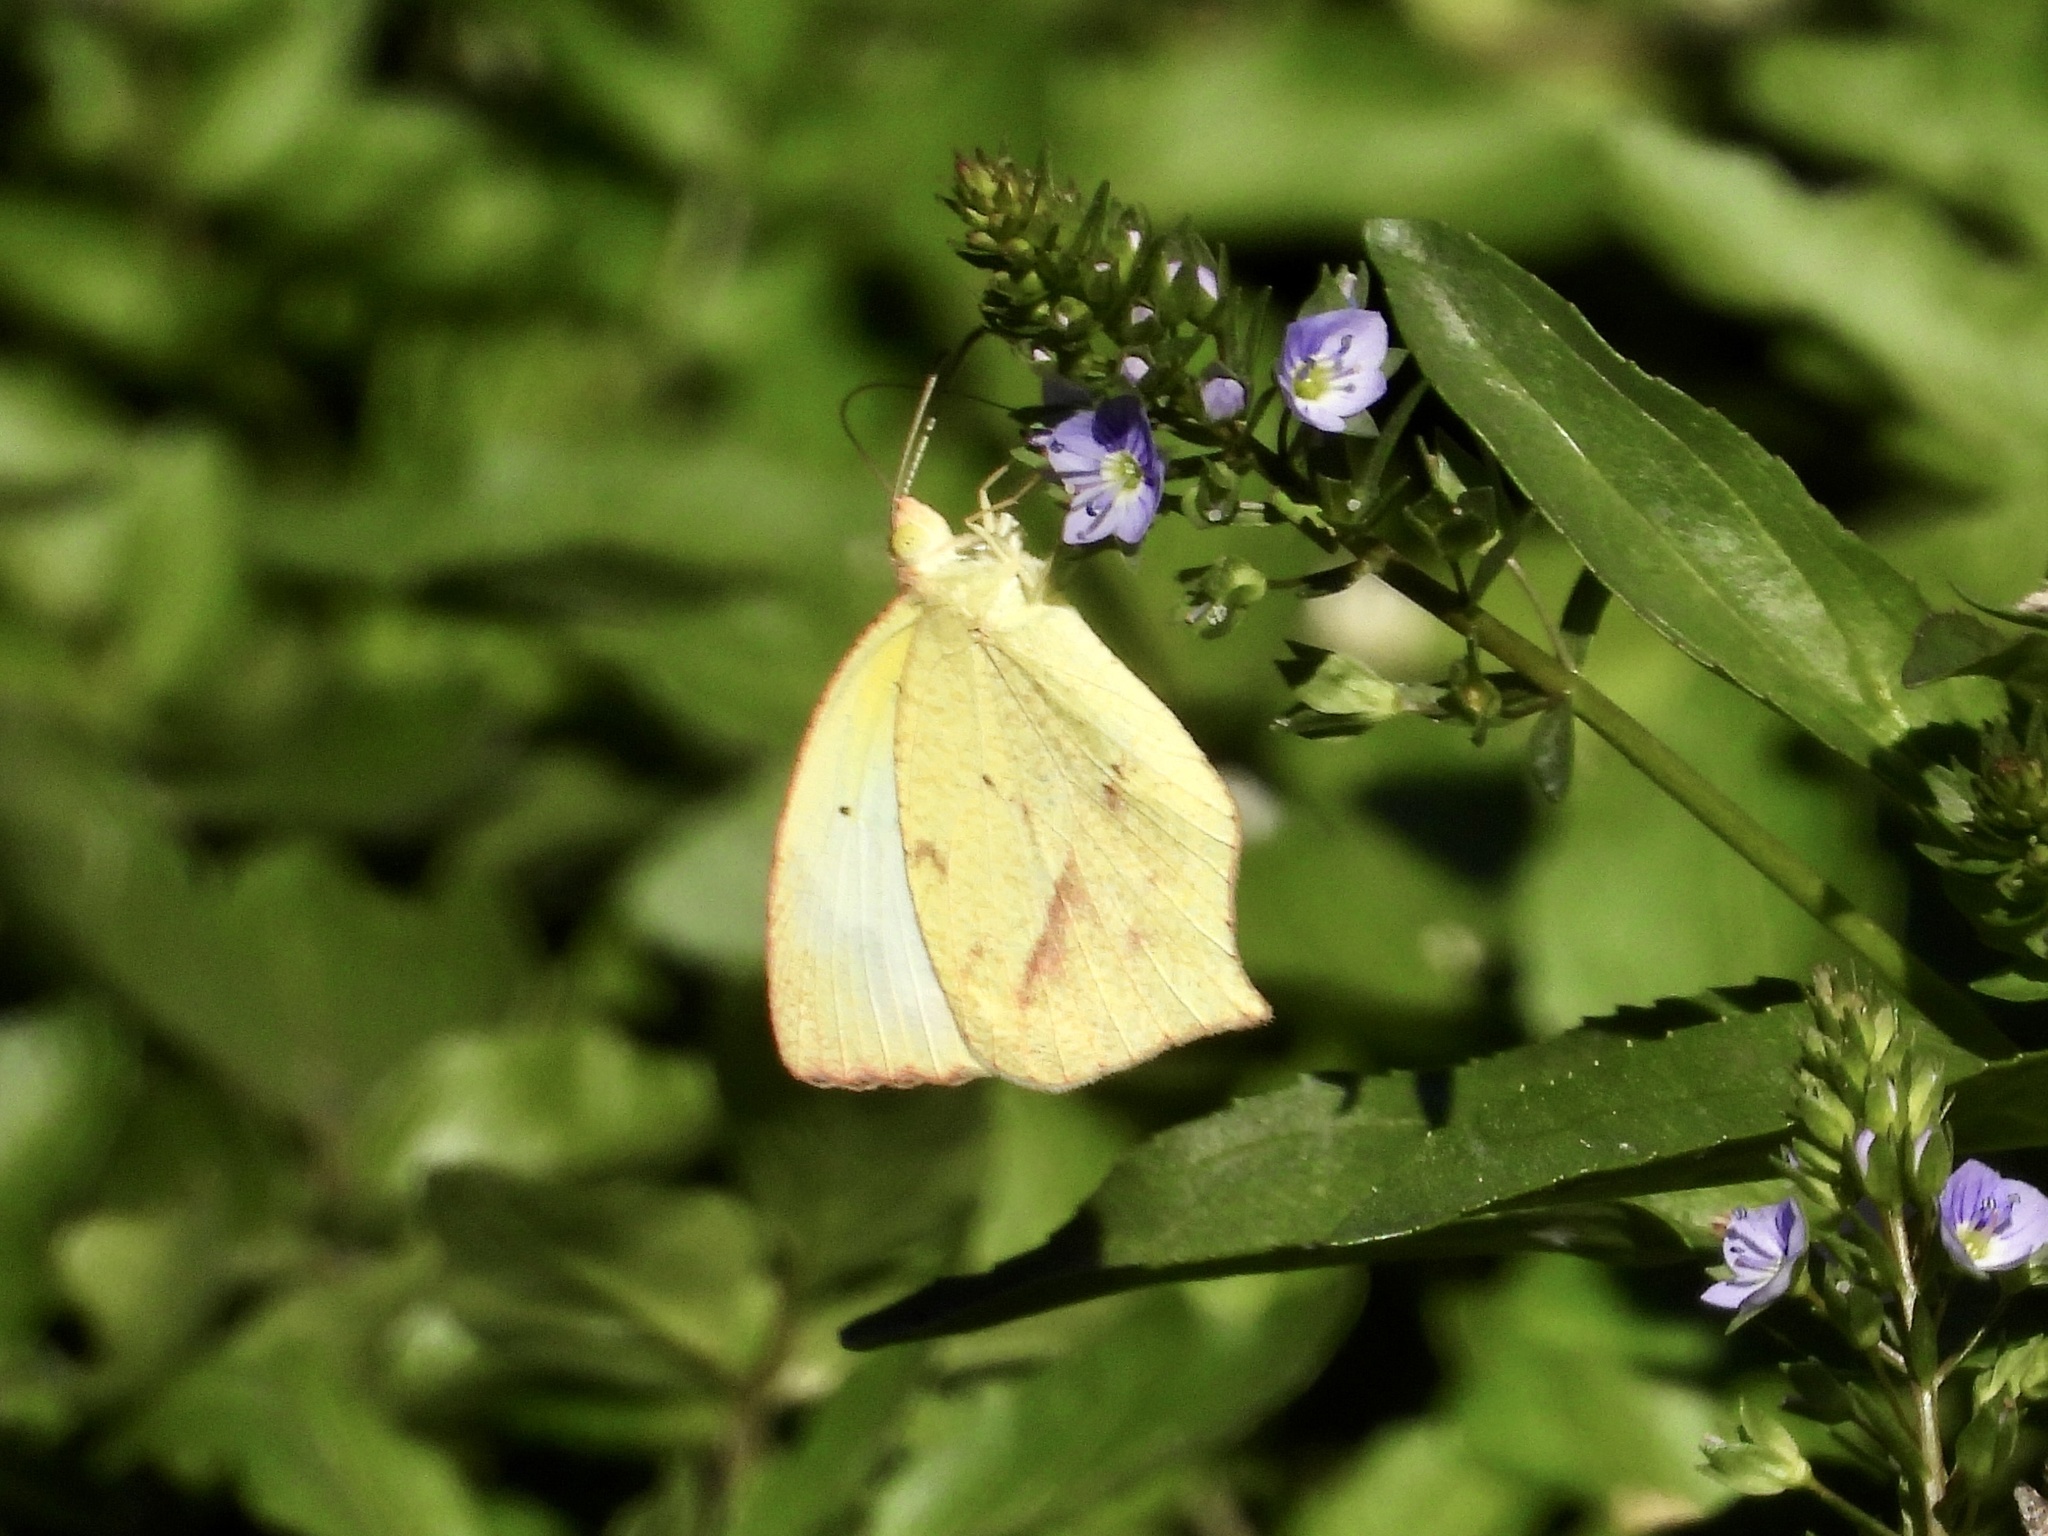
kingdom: Animalia
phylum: Arthropoda
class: Insecta
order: Lepidoptera
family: Pieridae
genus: Abaeis
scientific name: Abaeis mexicana
